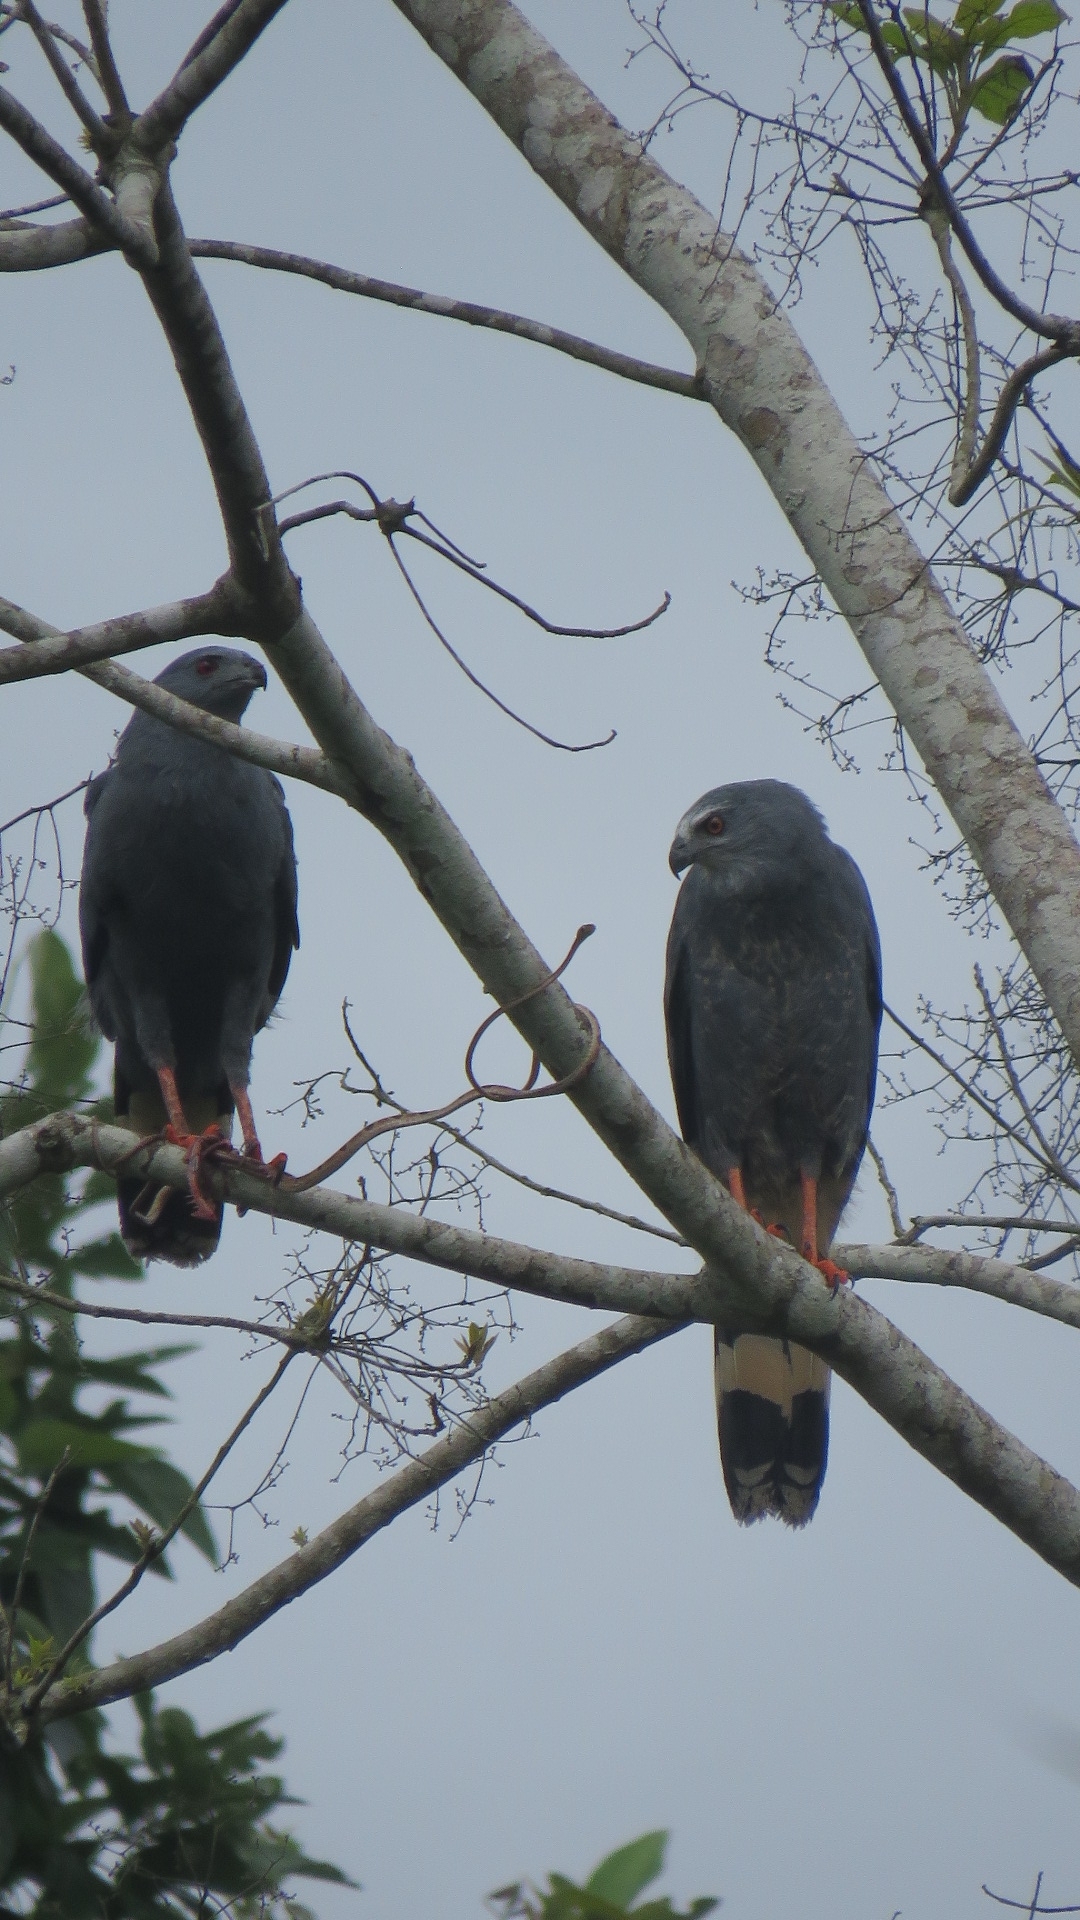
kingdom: Animalia
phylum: Chordata
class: Aves
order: Accipitriformes
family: Accipitridae
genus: Geranospiza
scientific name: Geranospiza caerulescens
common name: Crane hawk
